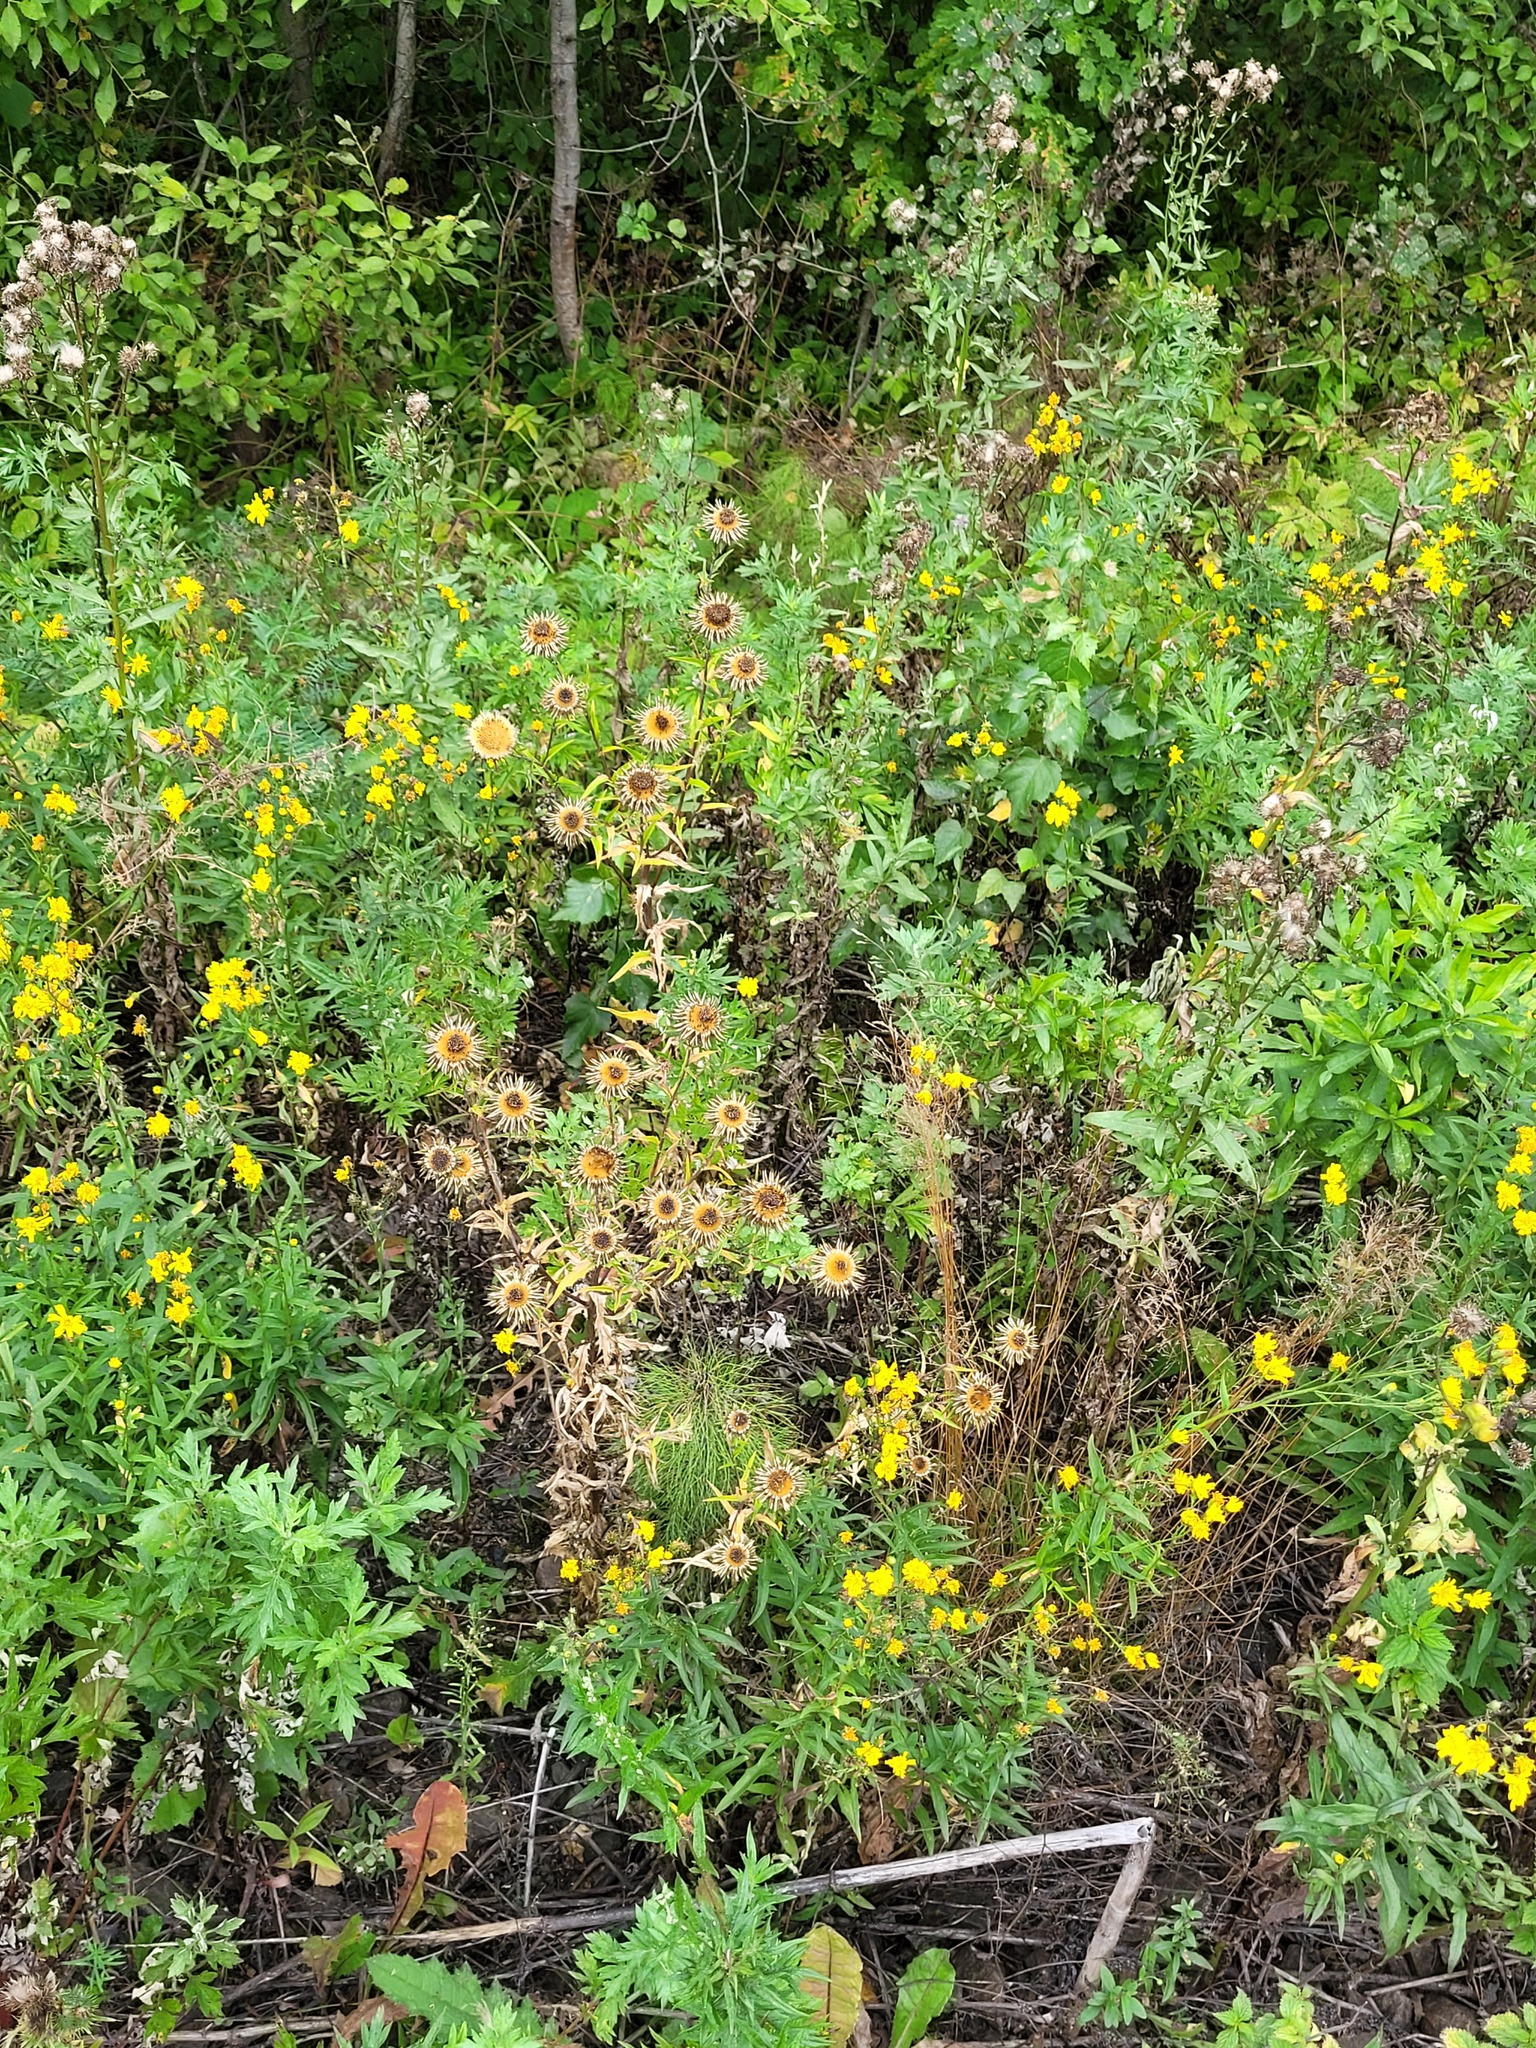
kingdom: Plantae
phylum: Tracheophyta
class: Magnoliopsida
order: Asterales
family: Asteraceae
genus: Carlina
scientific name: Carlina biebersteinii
